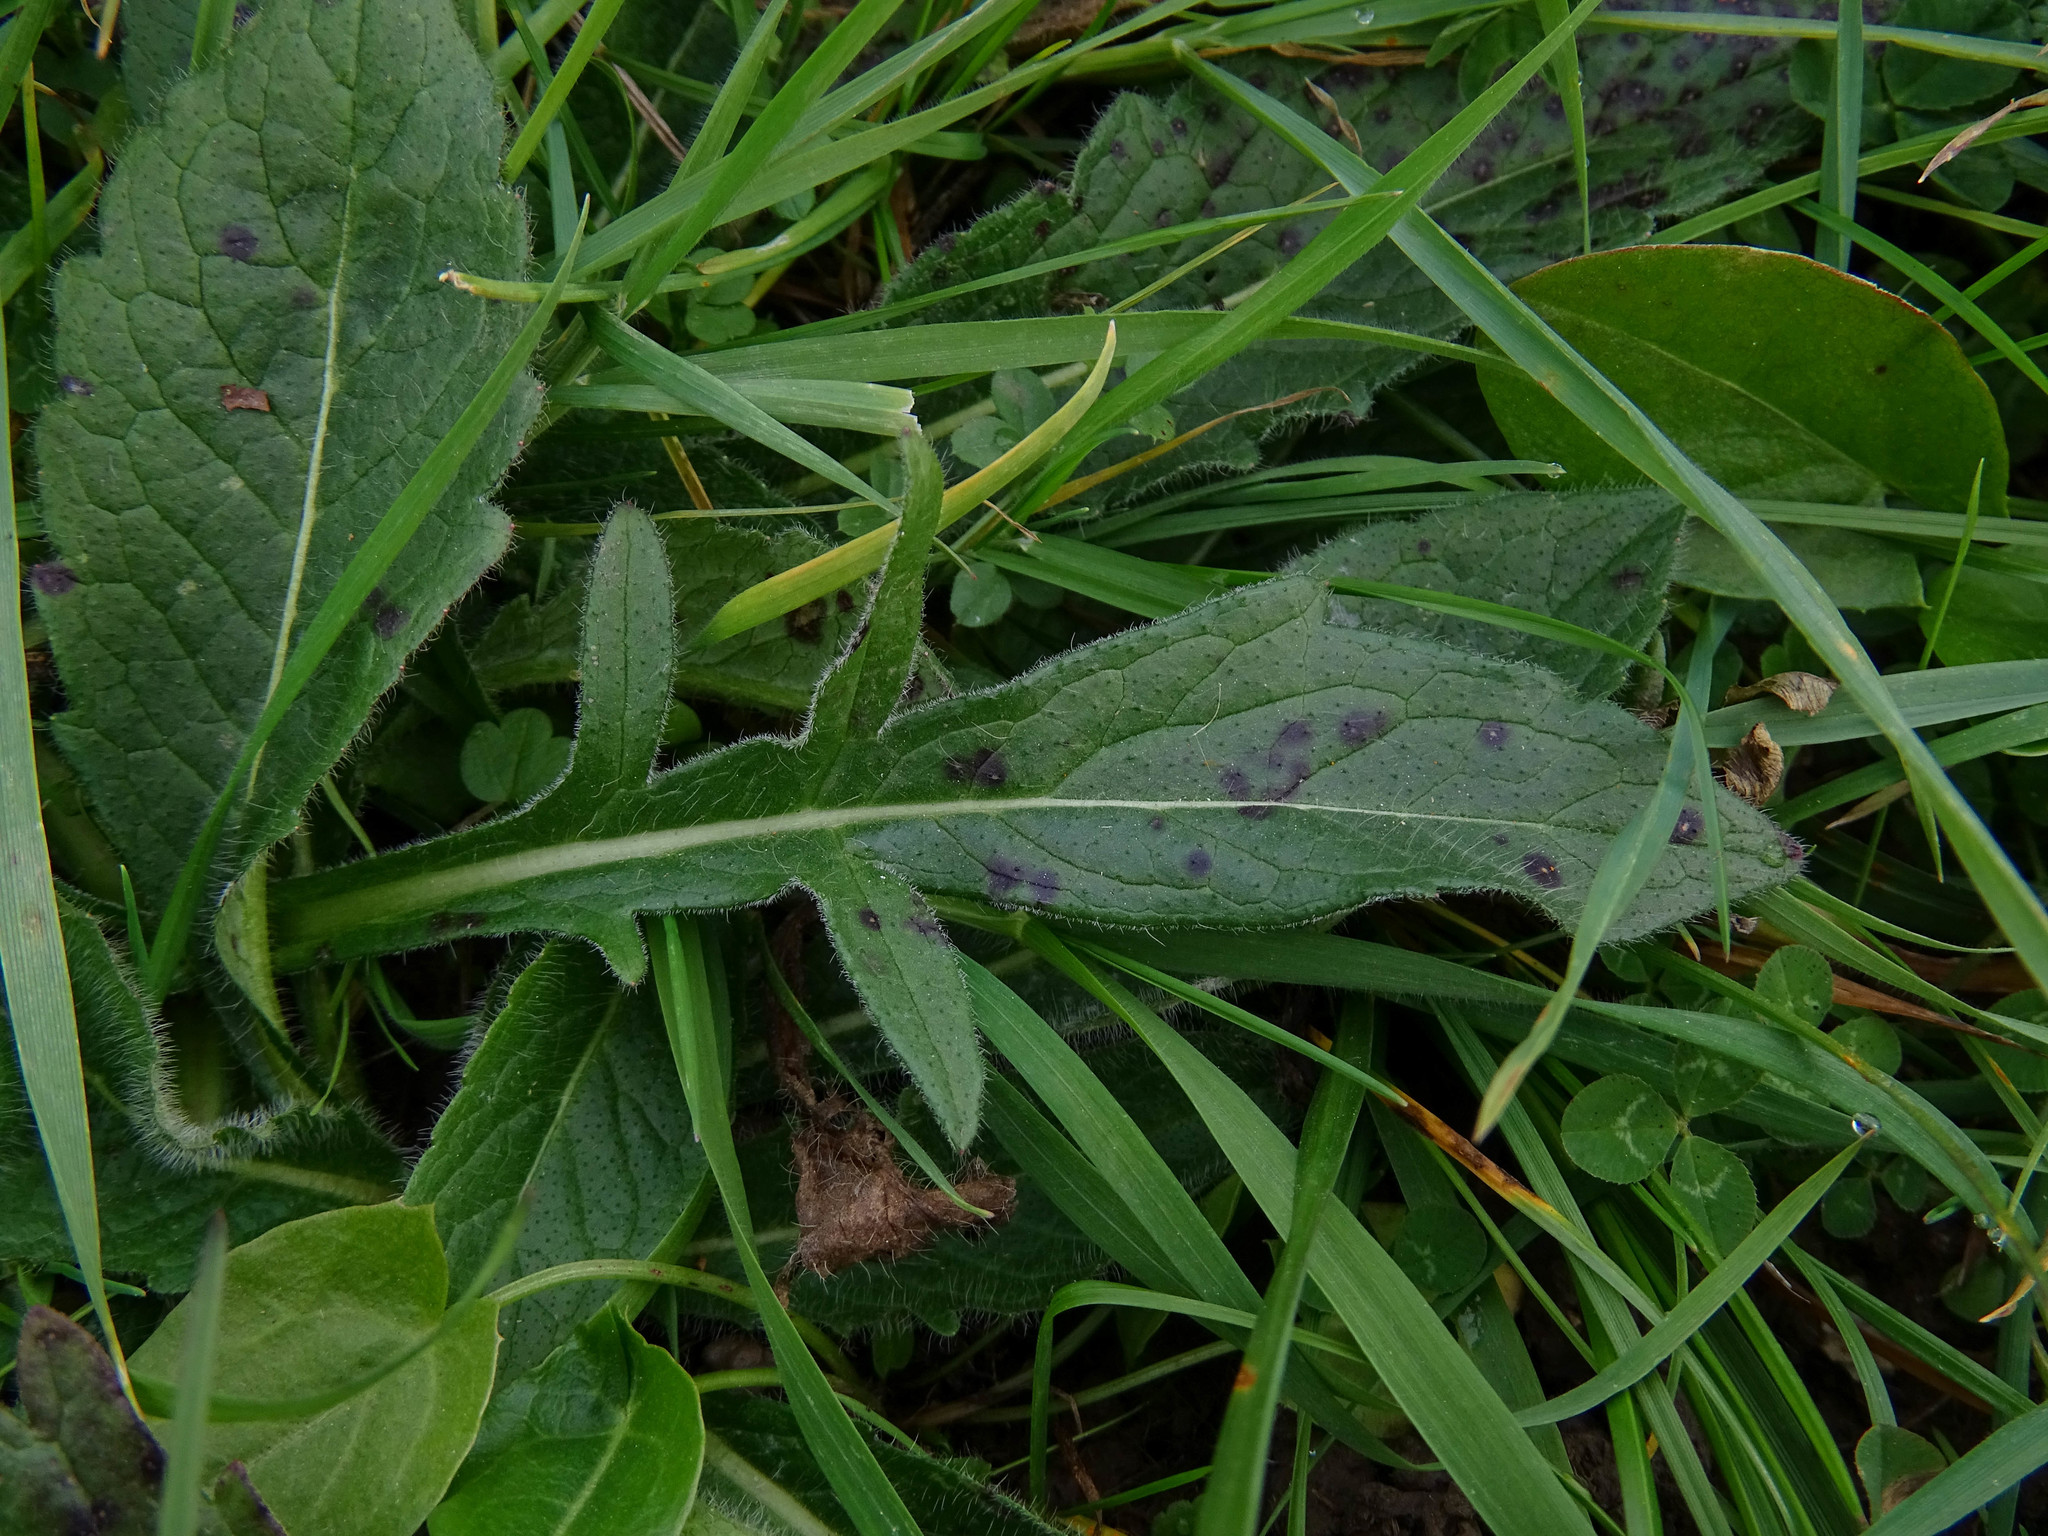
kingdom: Plantae
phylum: Tracheophyta
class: Magnoliopsida
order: Dipsacales
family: Caprifoliaceae
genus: Knautia
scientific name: Knautia arvensis
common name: Field scabiosa
